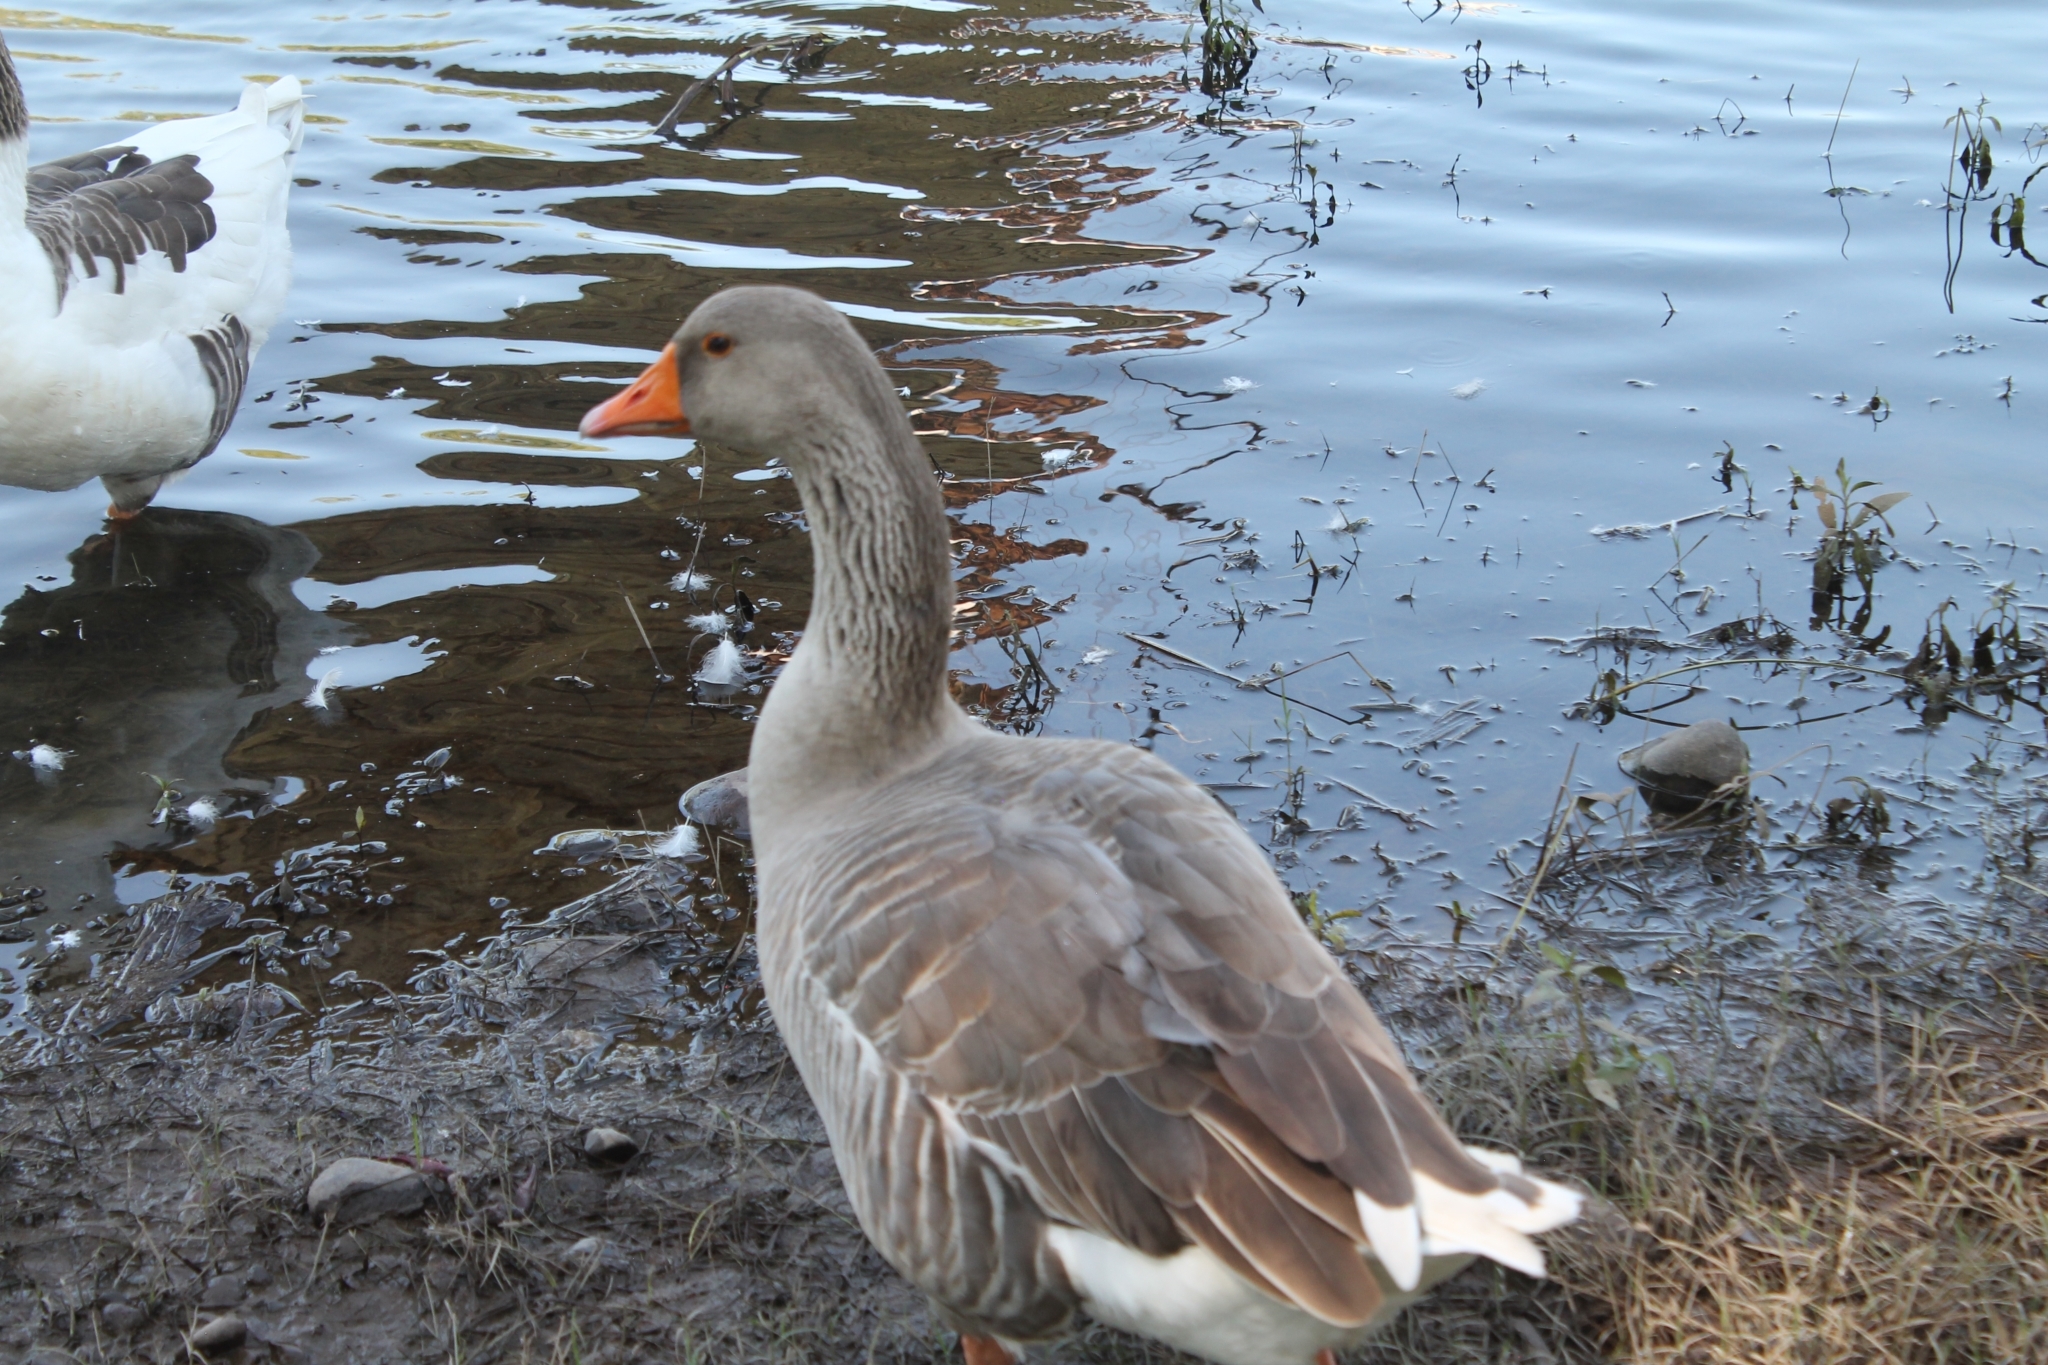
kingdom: Animalia
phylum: Chordata
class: Aves
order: Anseriformes
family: Anatidae
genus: Anser
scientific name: Anser anser
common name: Greylag goose
